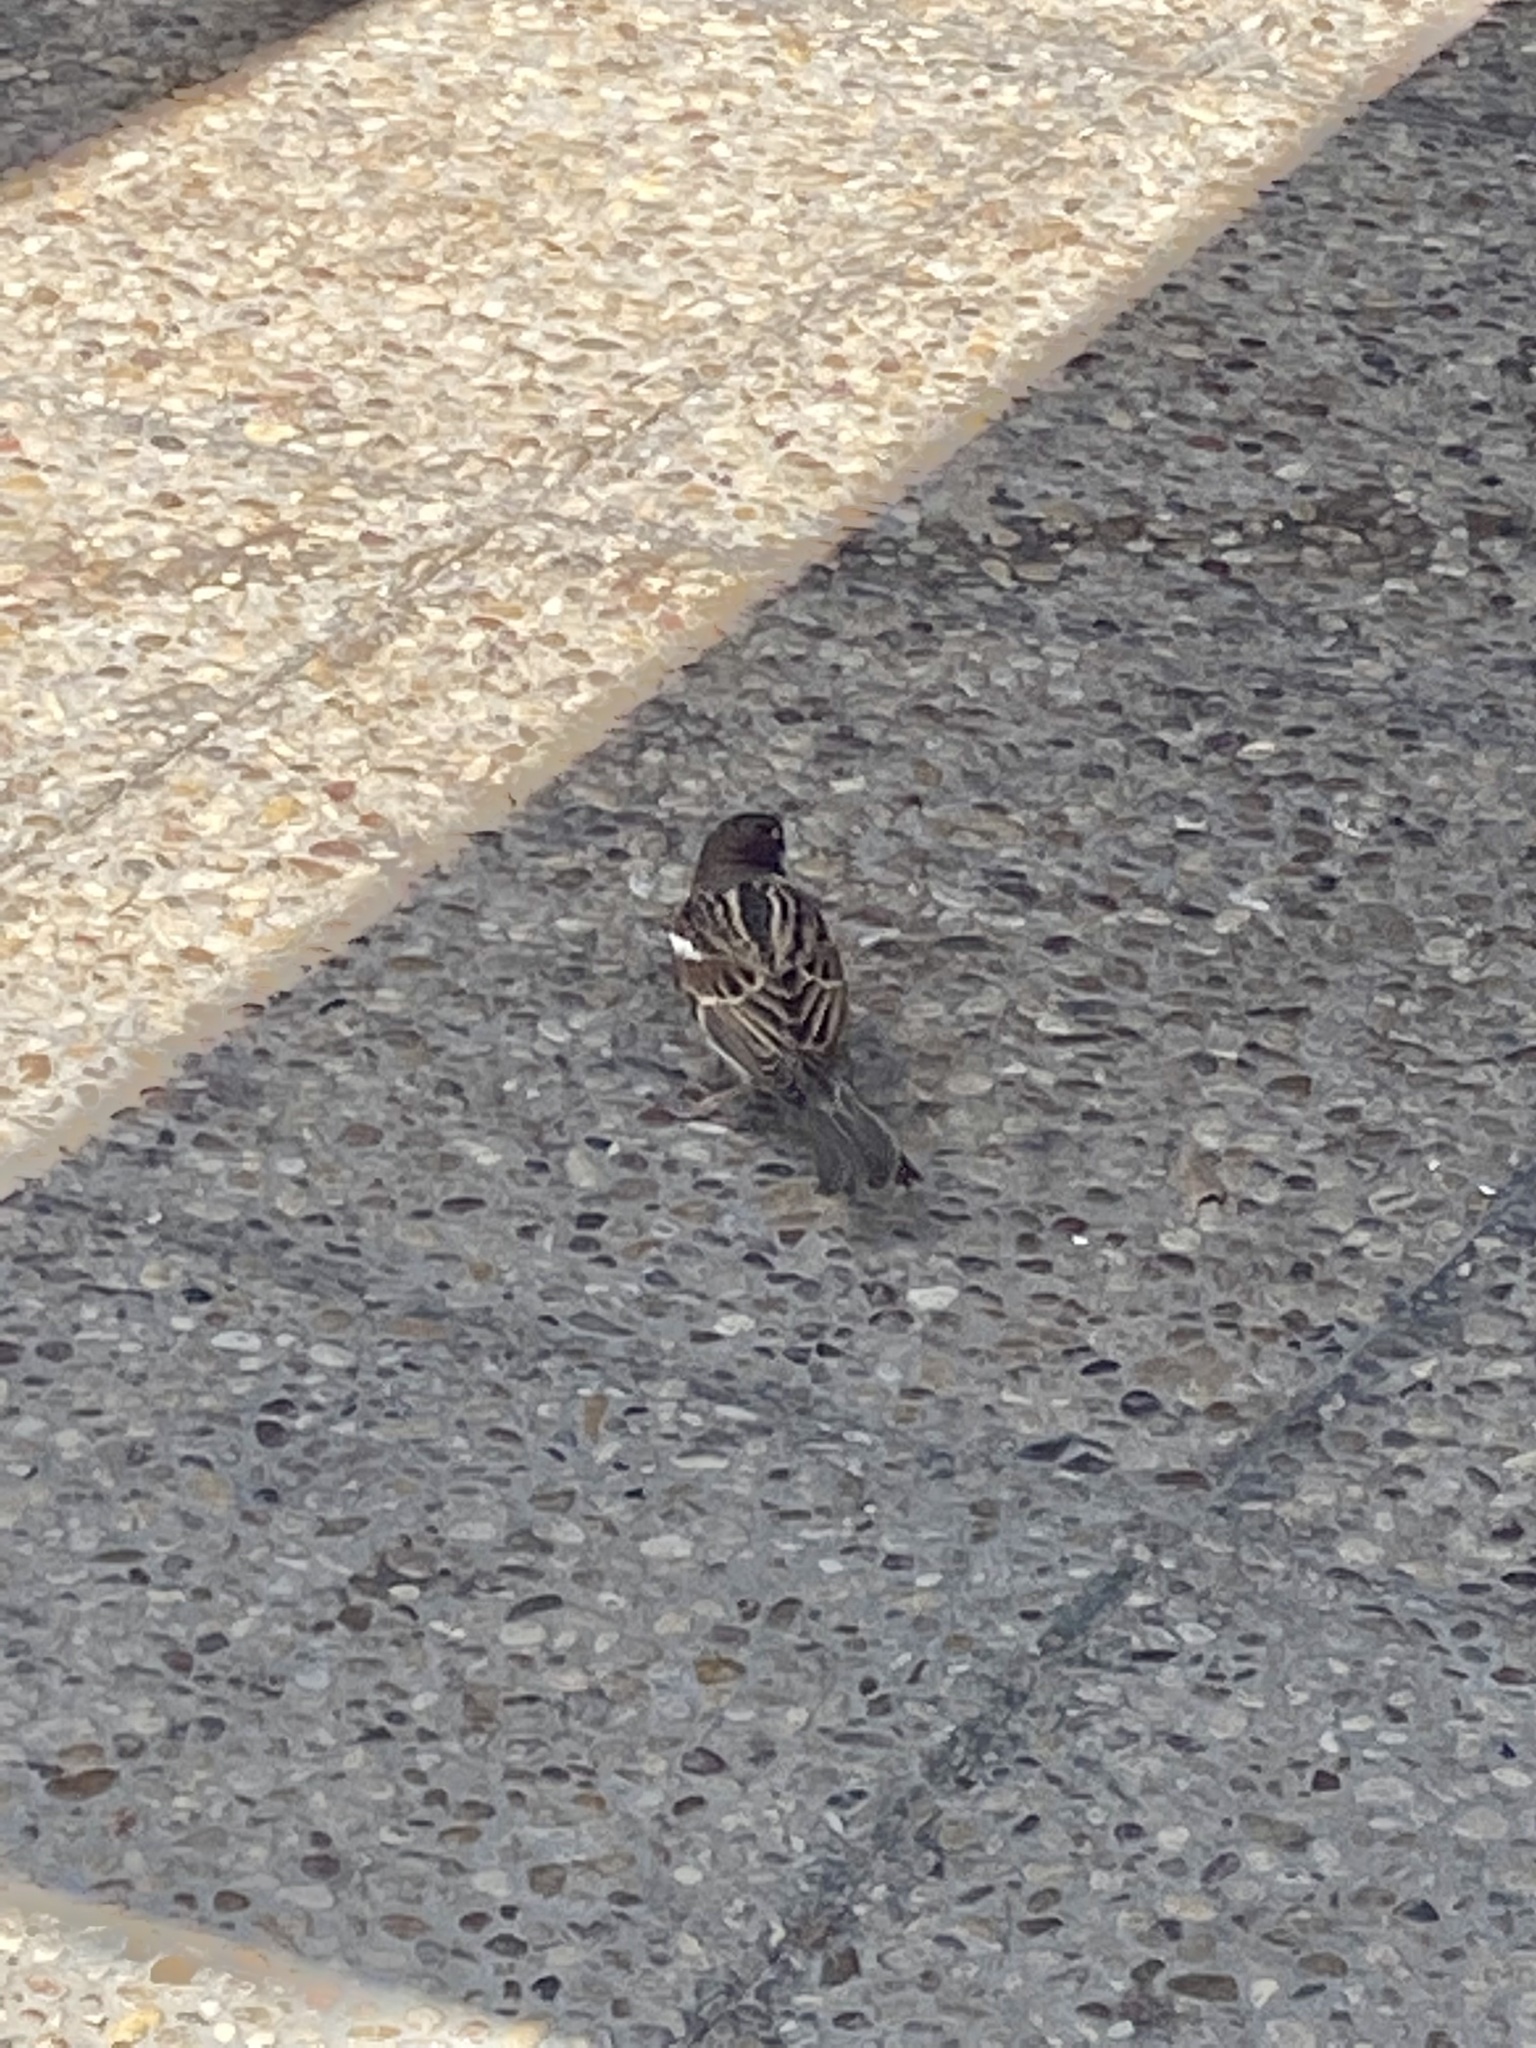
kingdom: Animalia
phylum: Chordata
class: Aves
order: Passeriformes
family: Passeridae
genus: Passer
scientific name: Passer hispaniolensis
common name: Spanish sparrow
